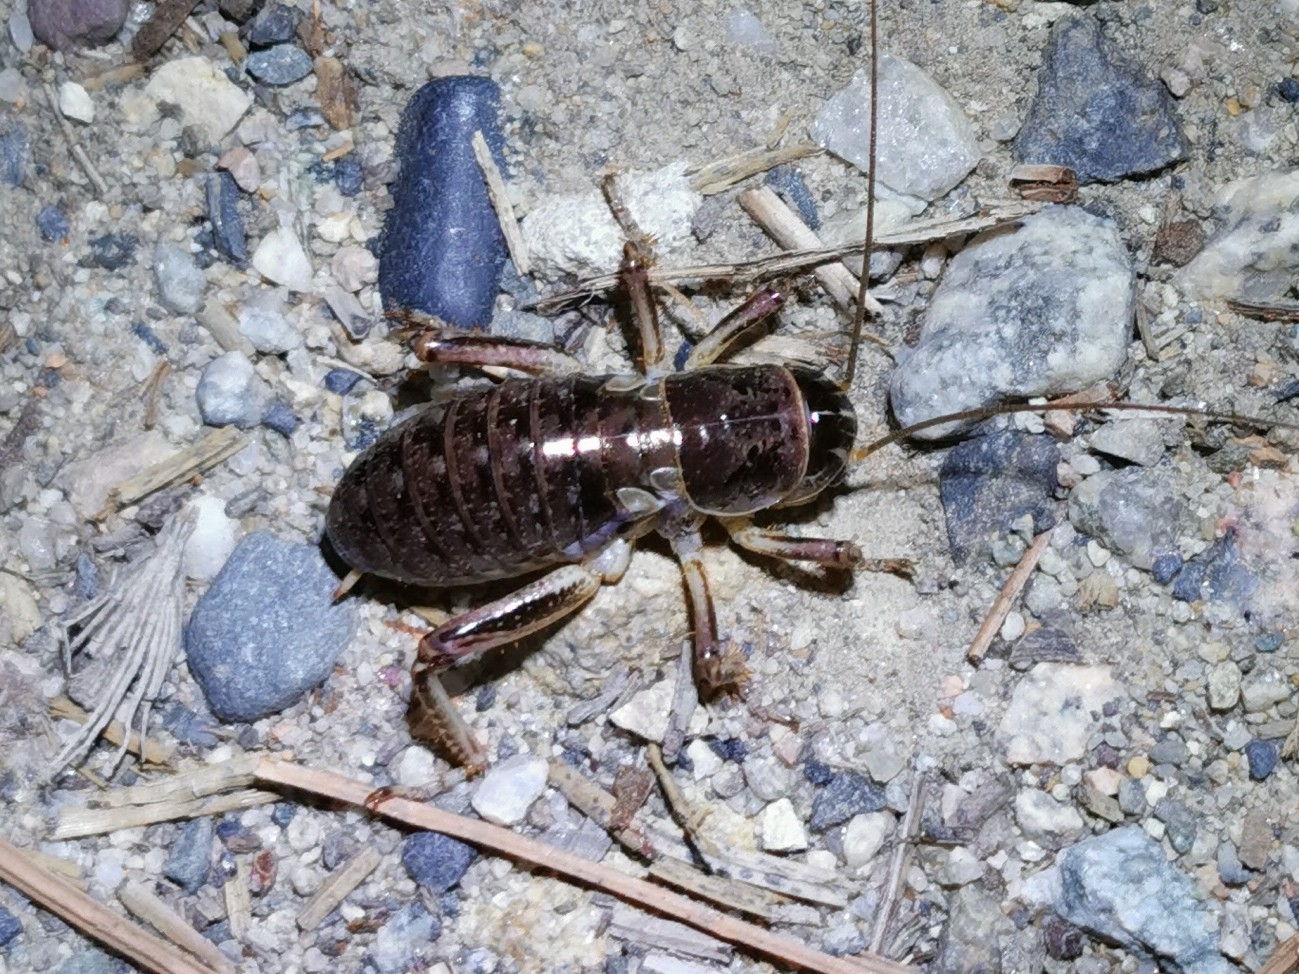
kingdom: Animalia
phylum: Arthropoda
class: Insecta
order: Orthoptera
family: Prophalangopsidae
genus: Cyphoderris
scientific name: Cyphoderris buckelli
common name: Buckell’s grig
